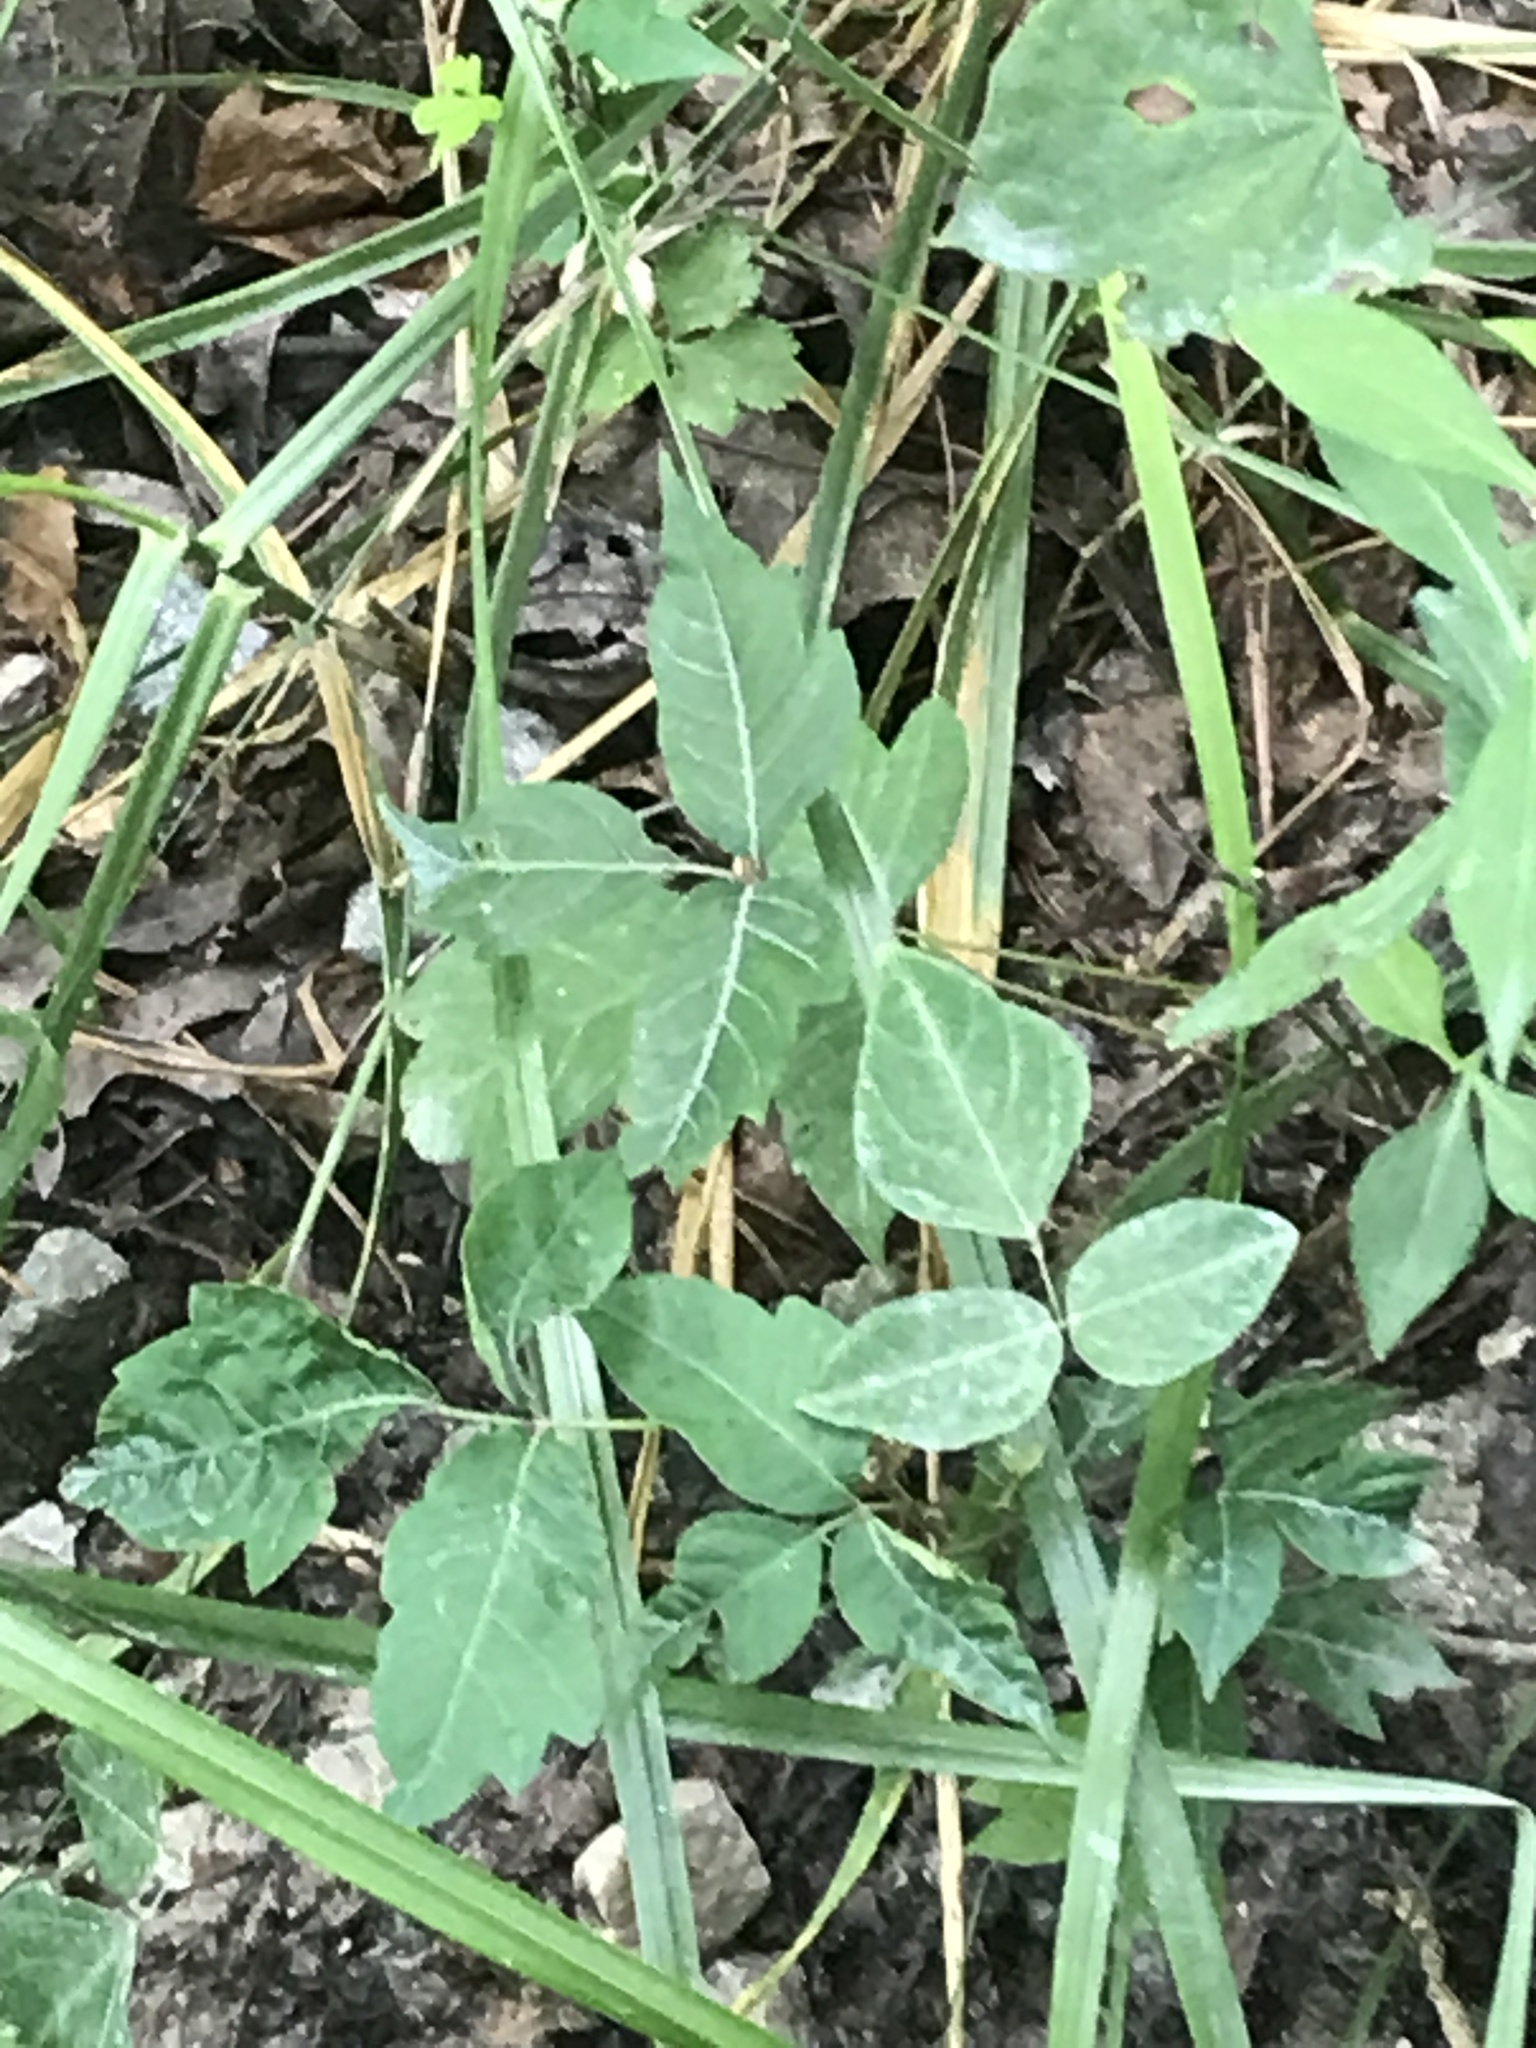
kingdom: Plantae
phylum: Tracheophyta
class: Magnoliopsida
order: Sapindales
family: Anacardiaceae
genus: Toxicodendron
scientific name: Toxicodendron radicans
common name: Poison ivy
